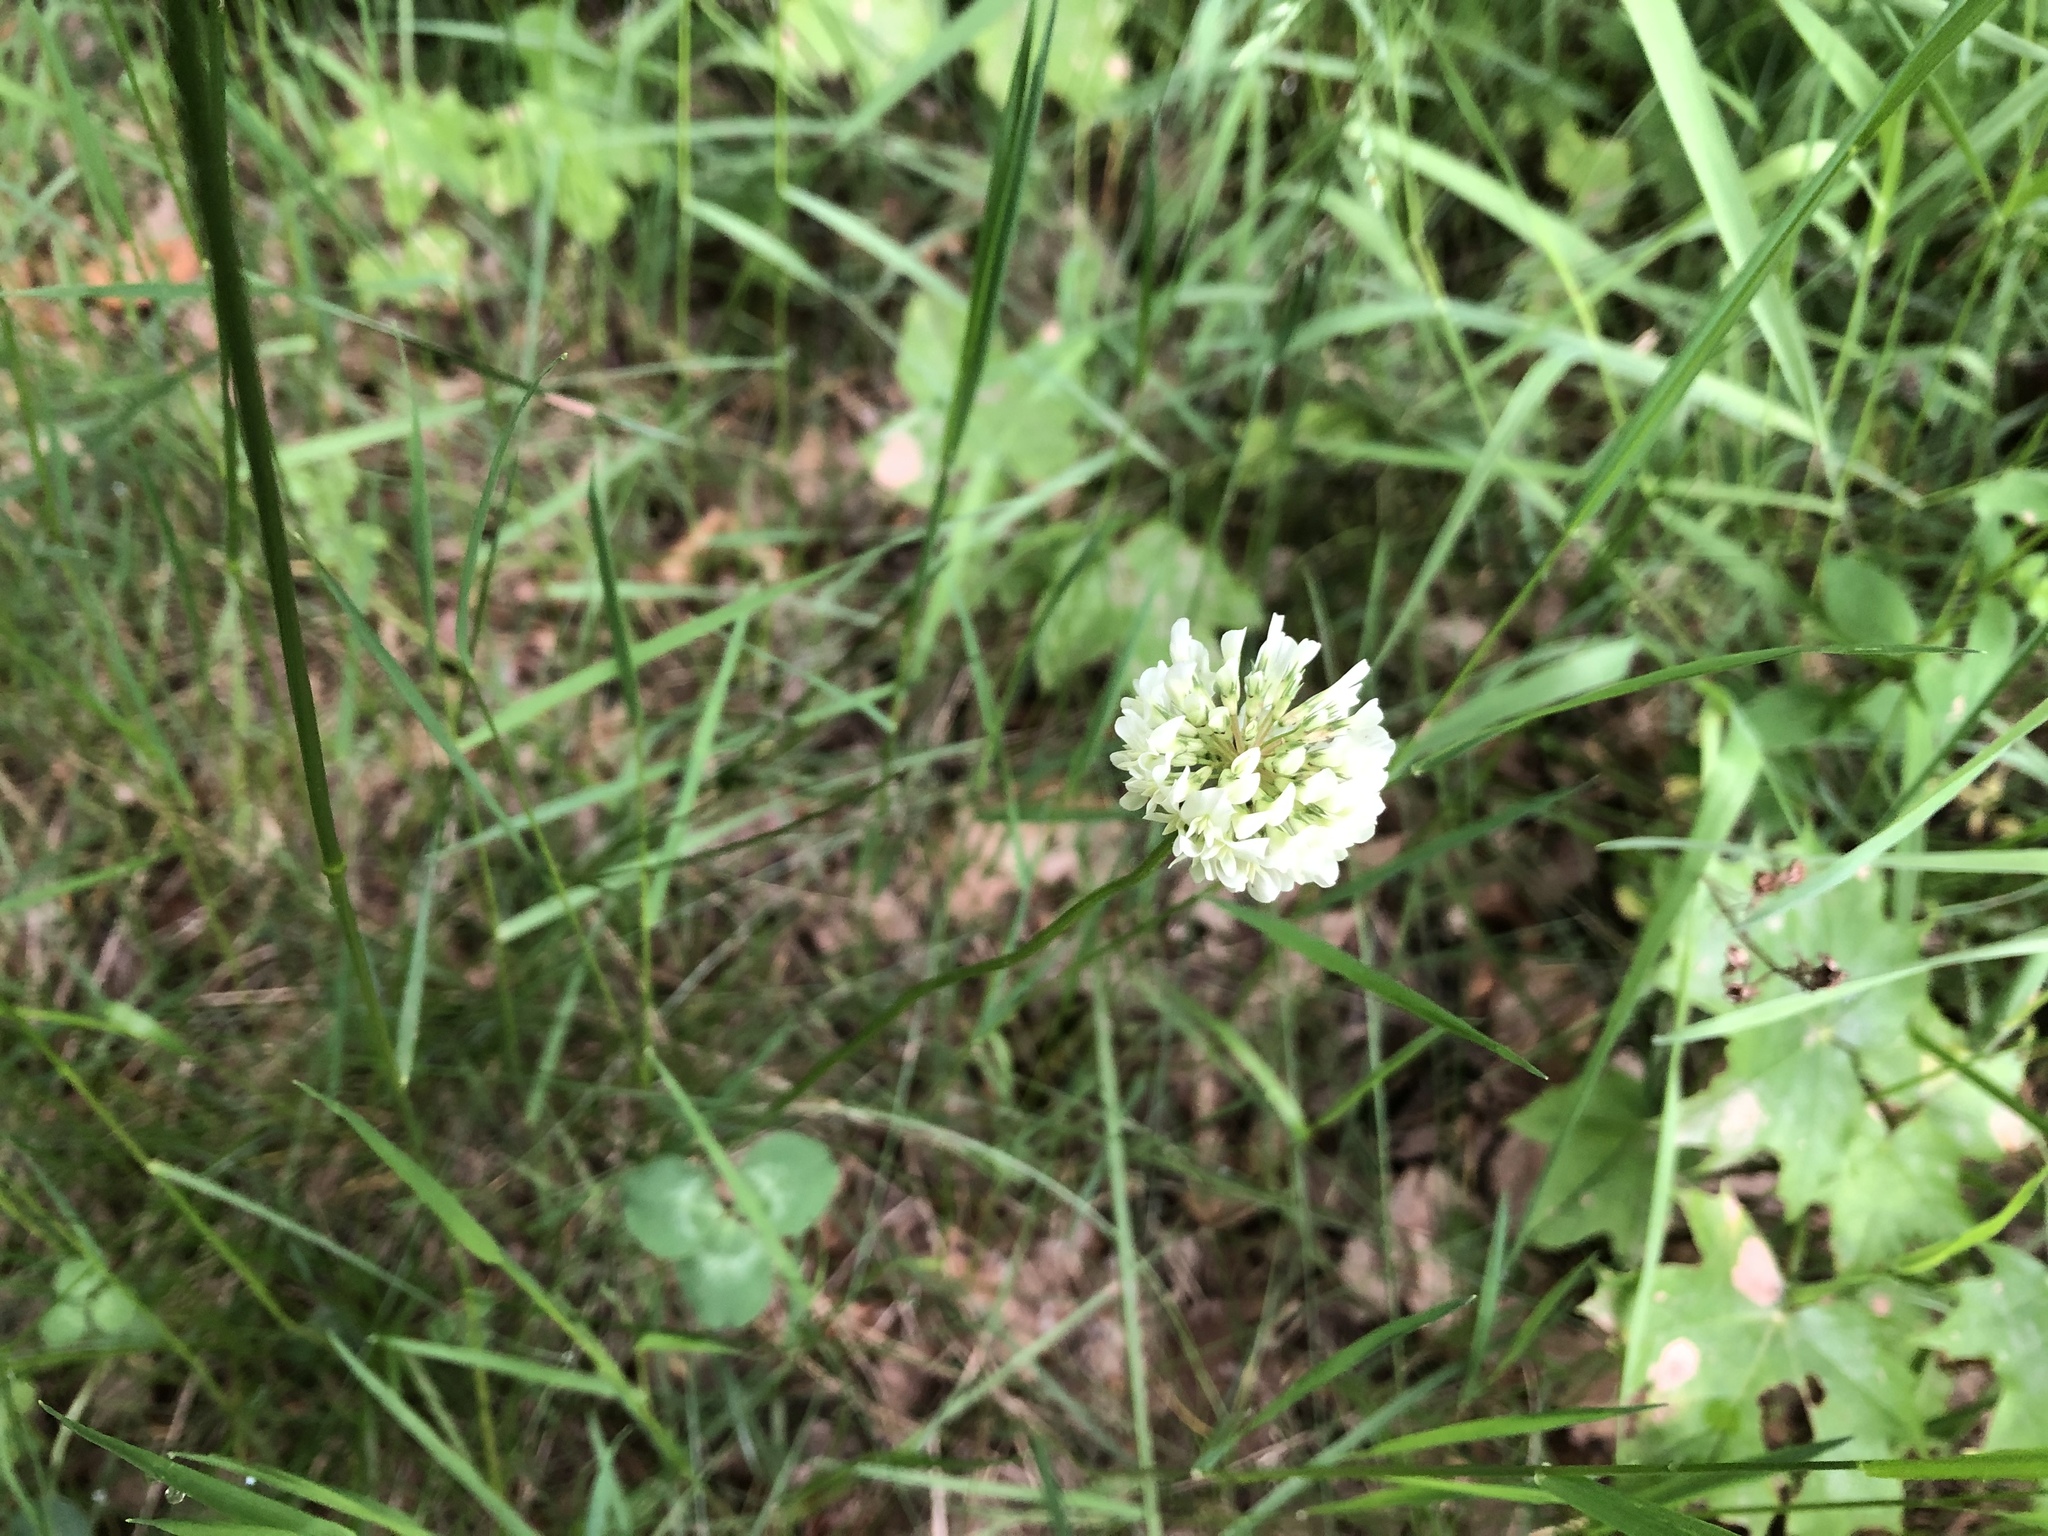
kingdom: Plantae
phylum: Tracheophyta
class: Magnoliopsida
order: Fabales
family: Fabaceae
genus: Trifolium
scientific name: Trifolium repens
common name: White clover
